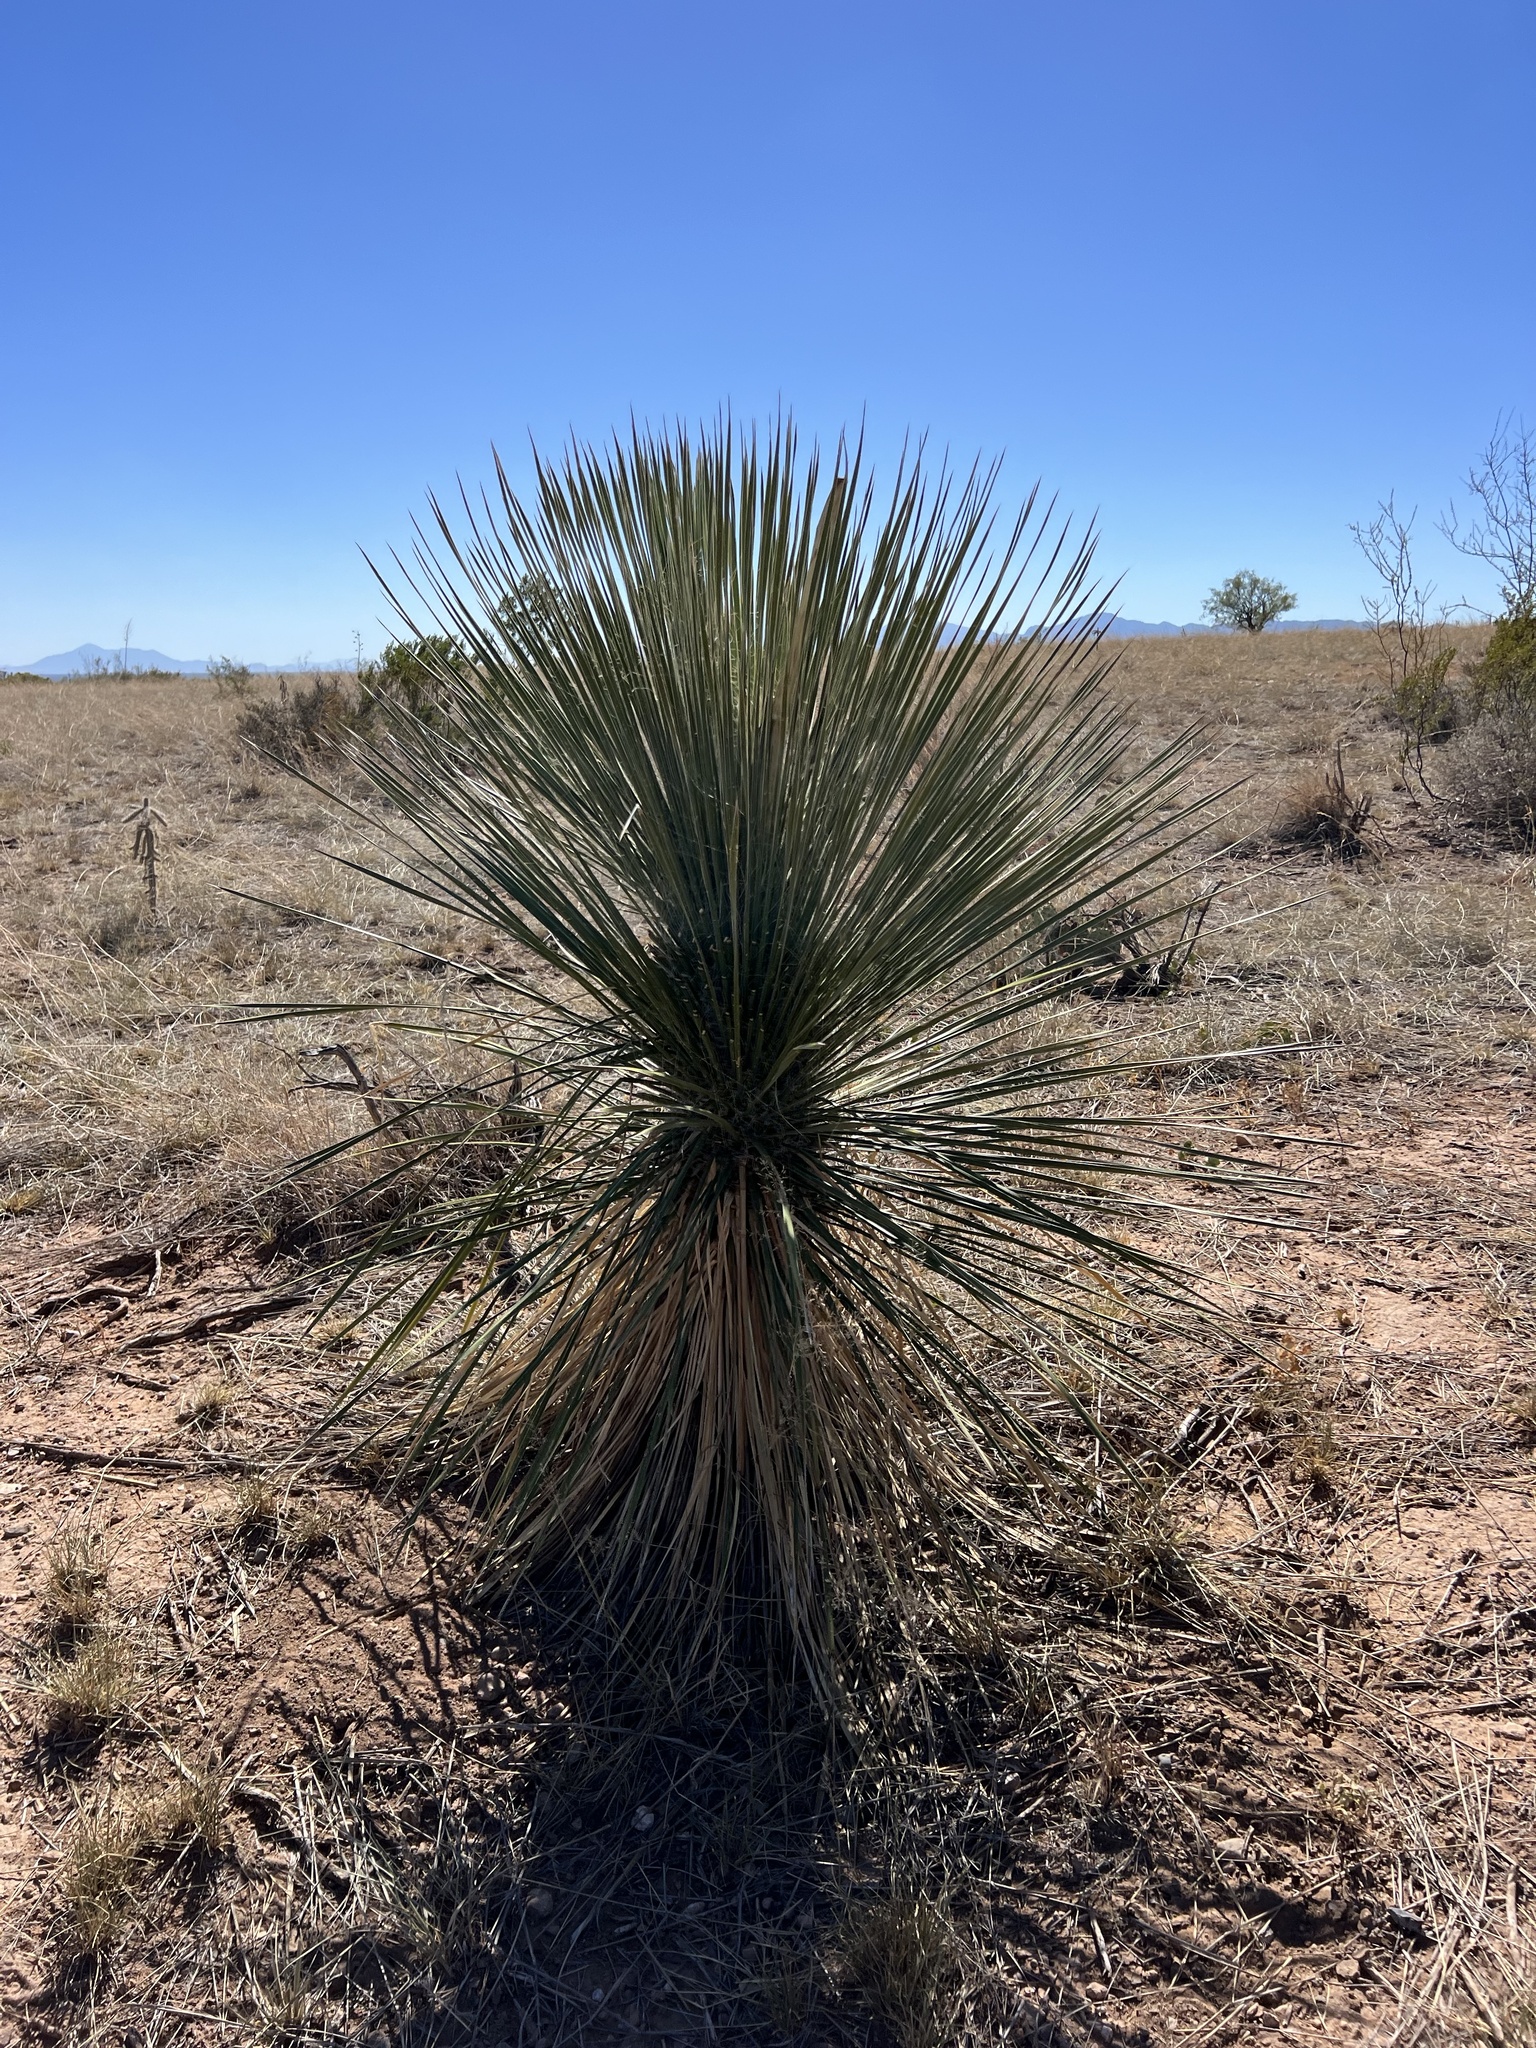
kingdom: Plantae
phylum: Tracheophyta
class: Liliopsida
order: Asparagales
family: Asparagaceae
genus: Yucca
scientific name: Yucca elata
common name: Palmella
